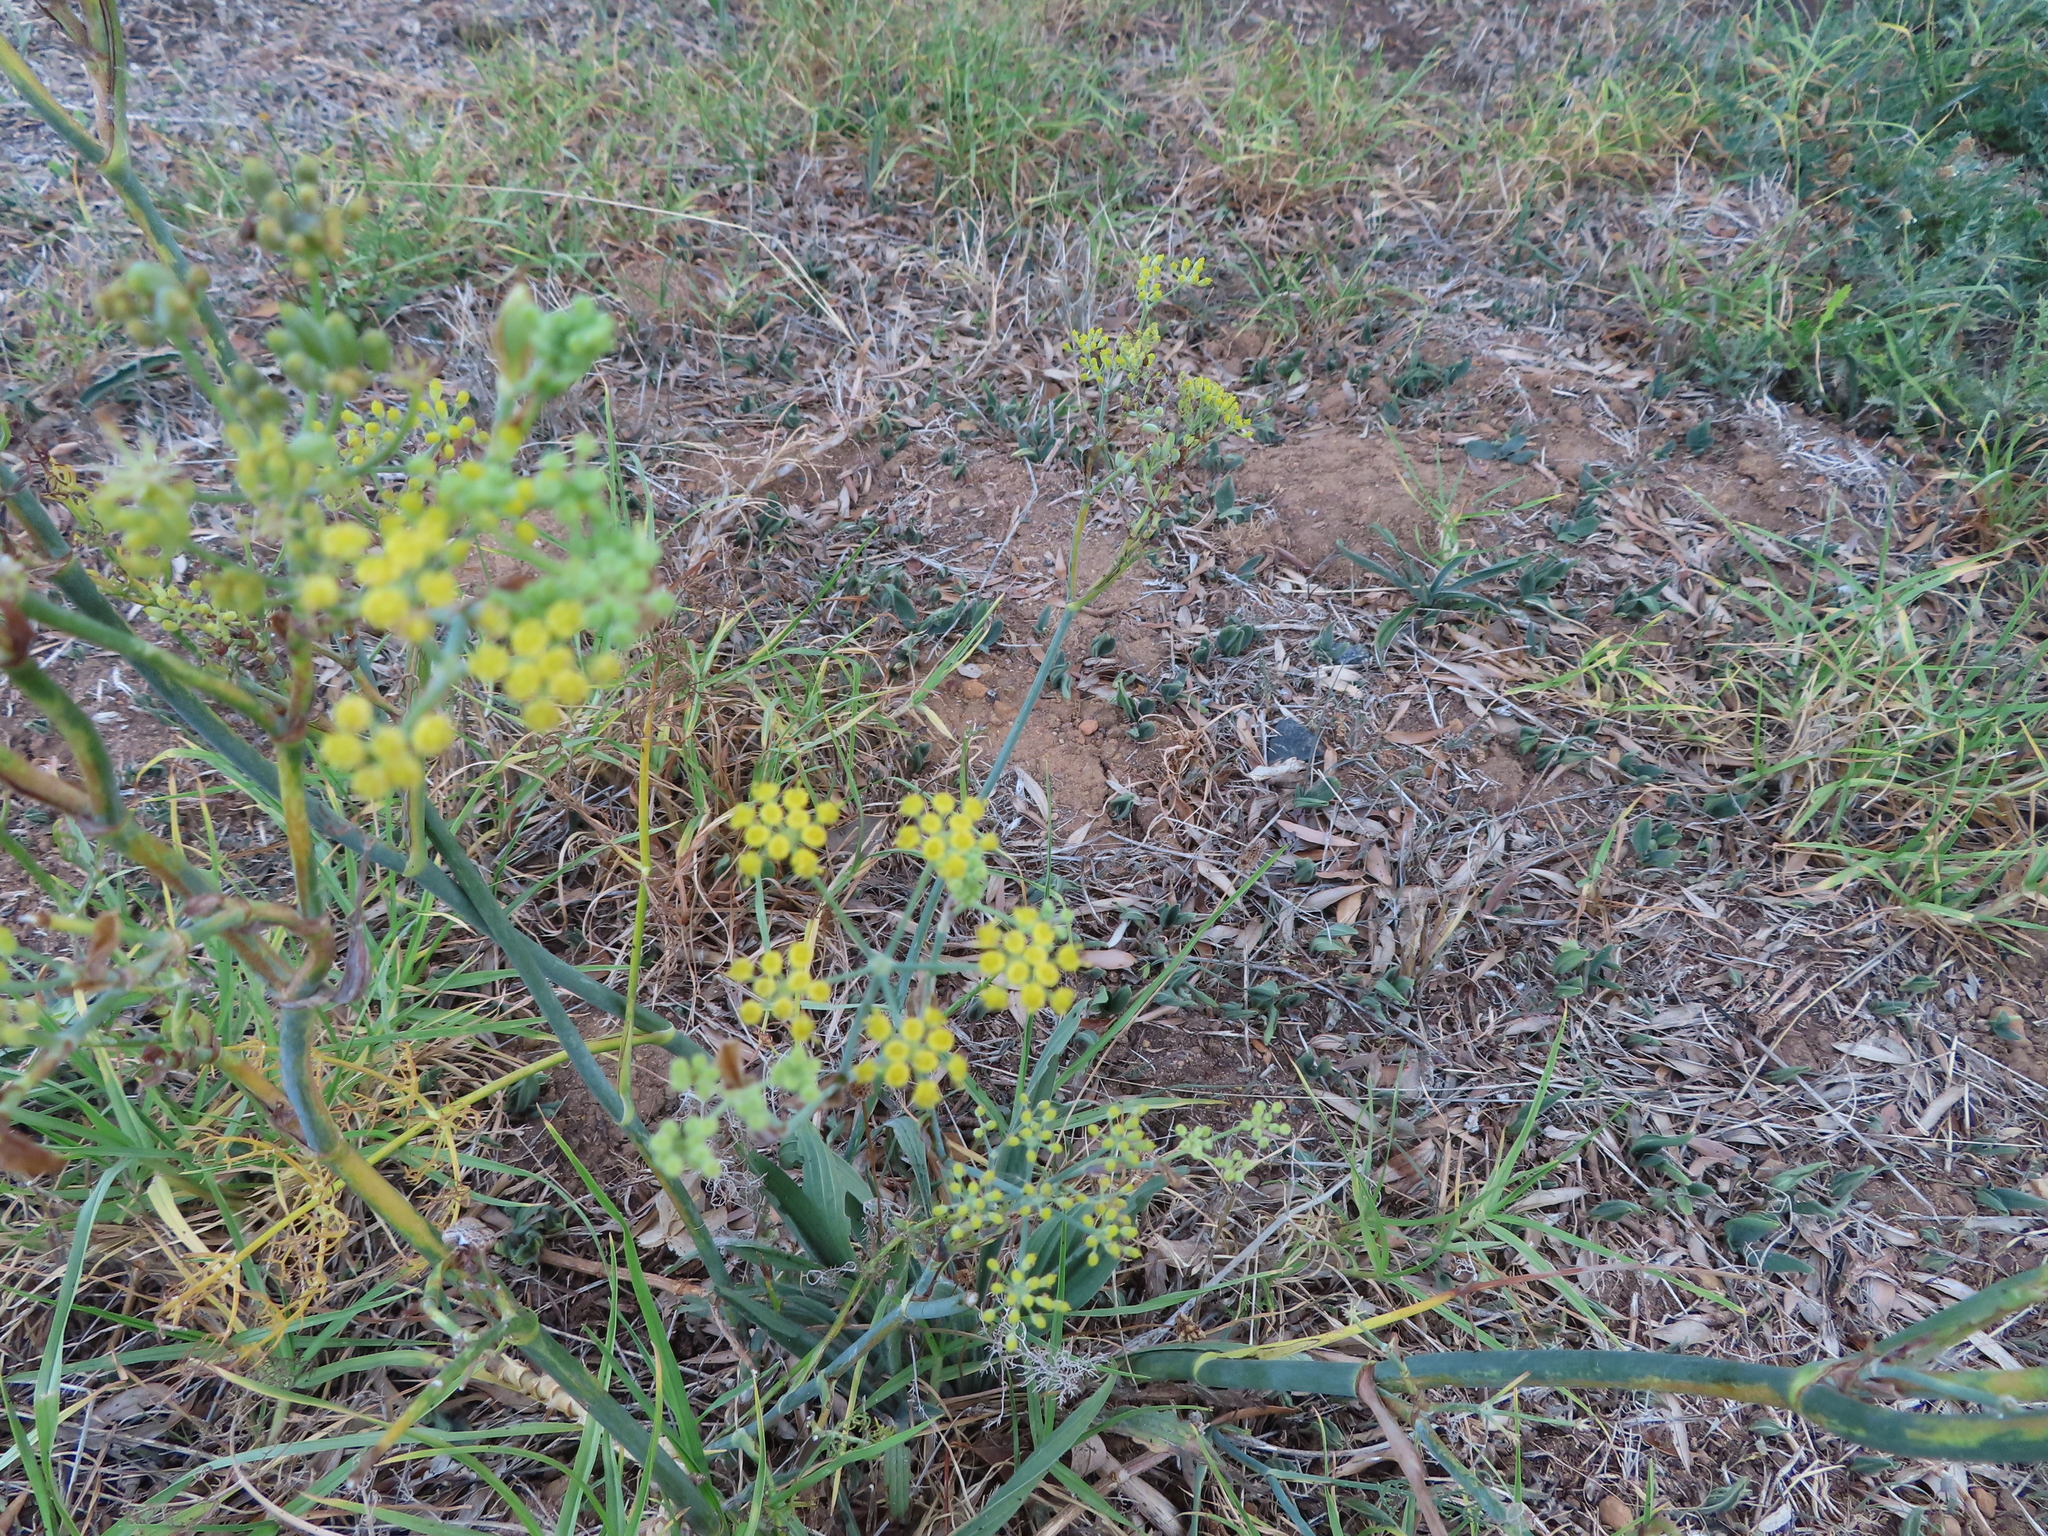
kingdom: Plantae
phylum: Tracheophyta
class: Magnoliopsida
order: Apiales
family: Apiaceae
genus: Foeniculum
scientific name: Foeniculum vulgare
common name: Fennel
